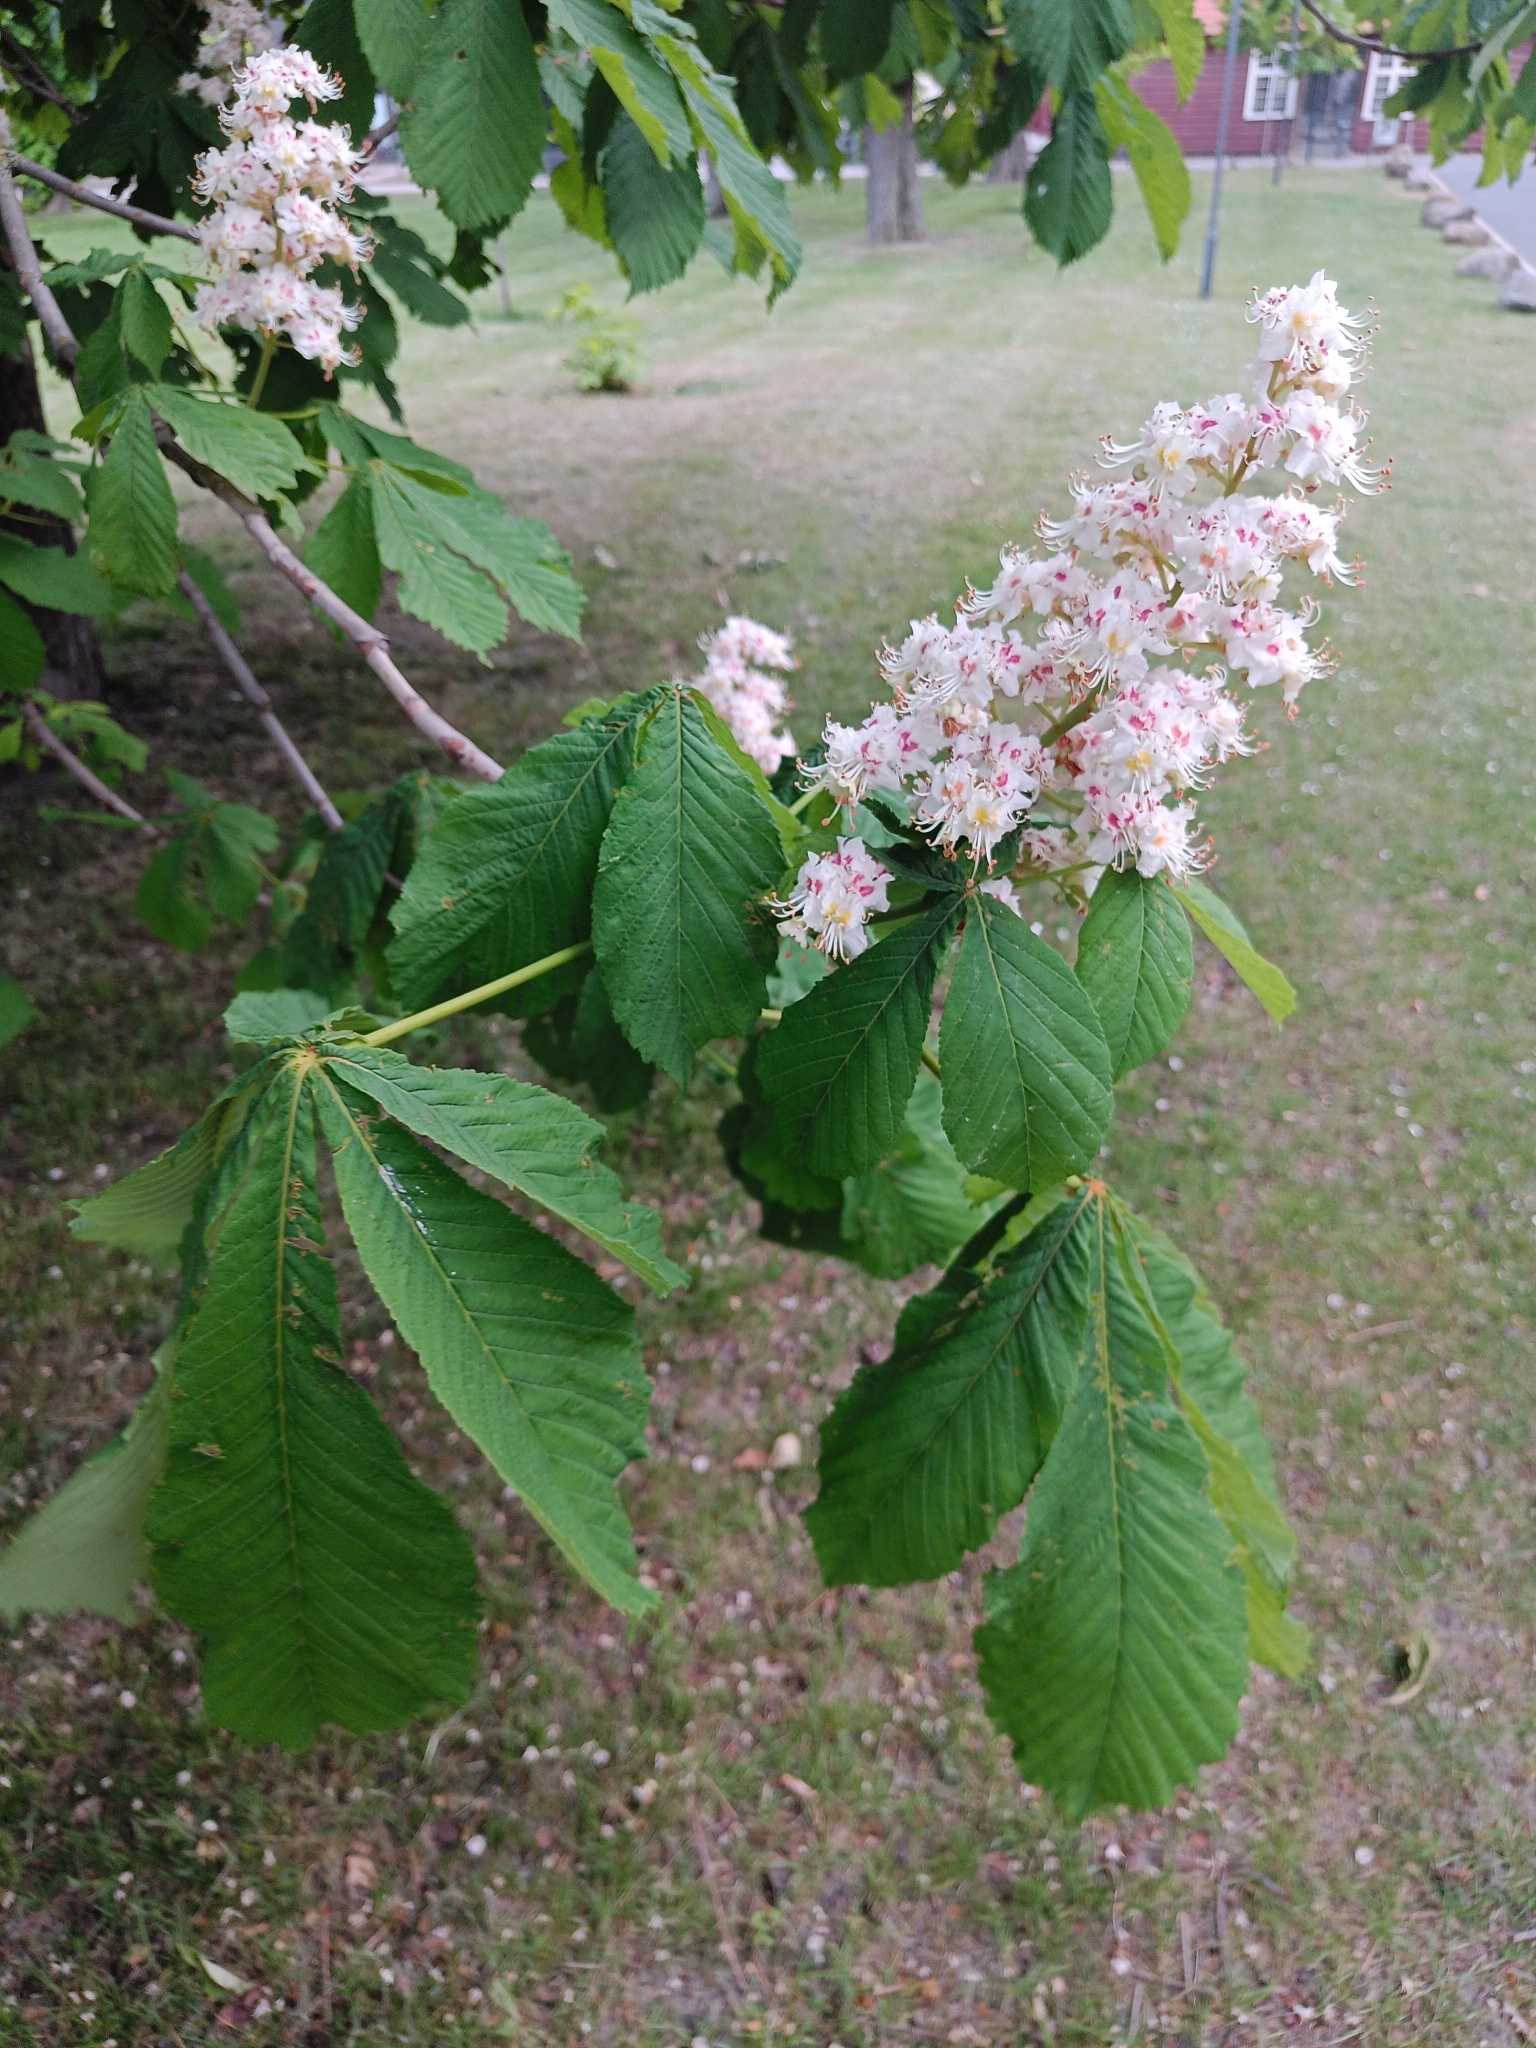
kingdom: Plantae
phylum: Tracheophyta
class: Magnoliopsida
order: Sapindales
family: Sapindaceae
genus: Aesculus
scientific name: Aesculus hippocastanum
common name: Horse-chestnut
